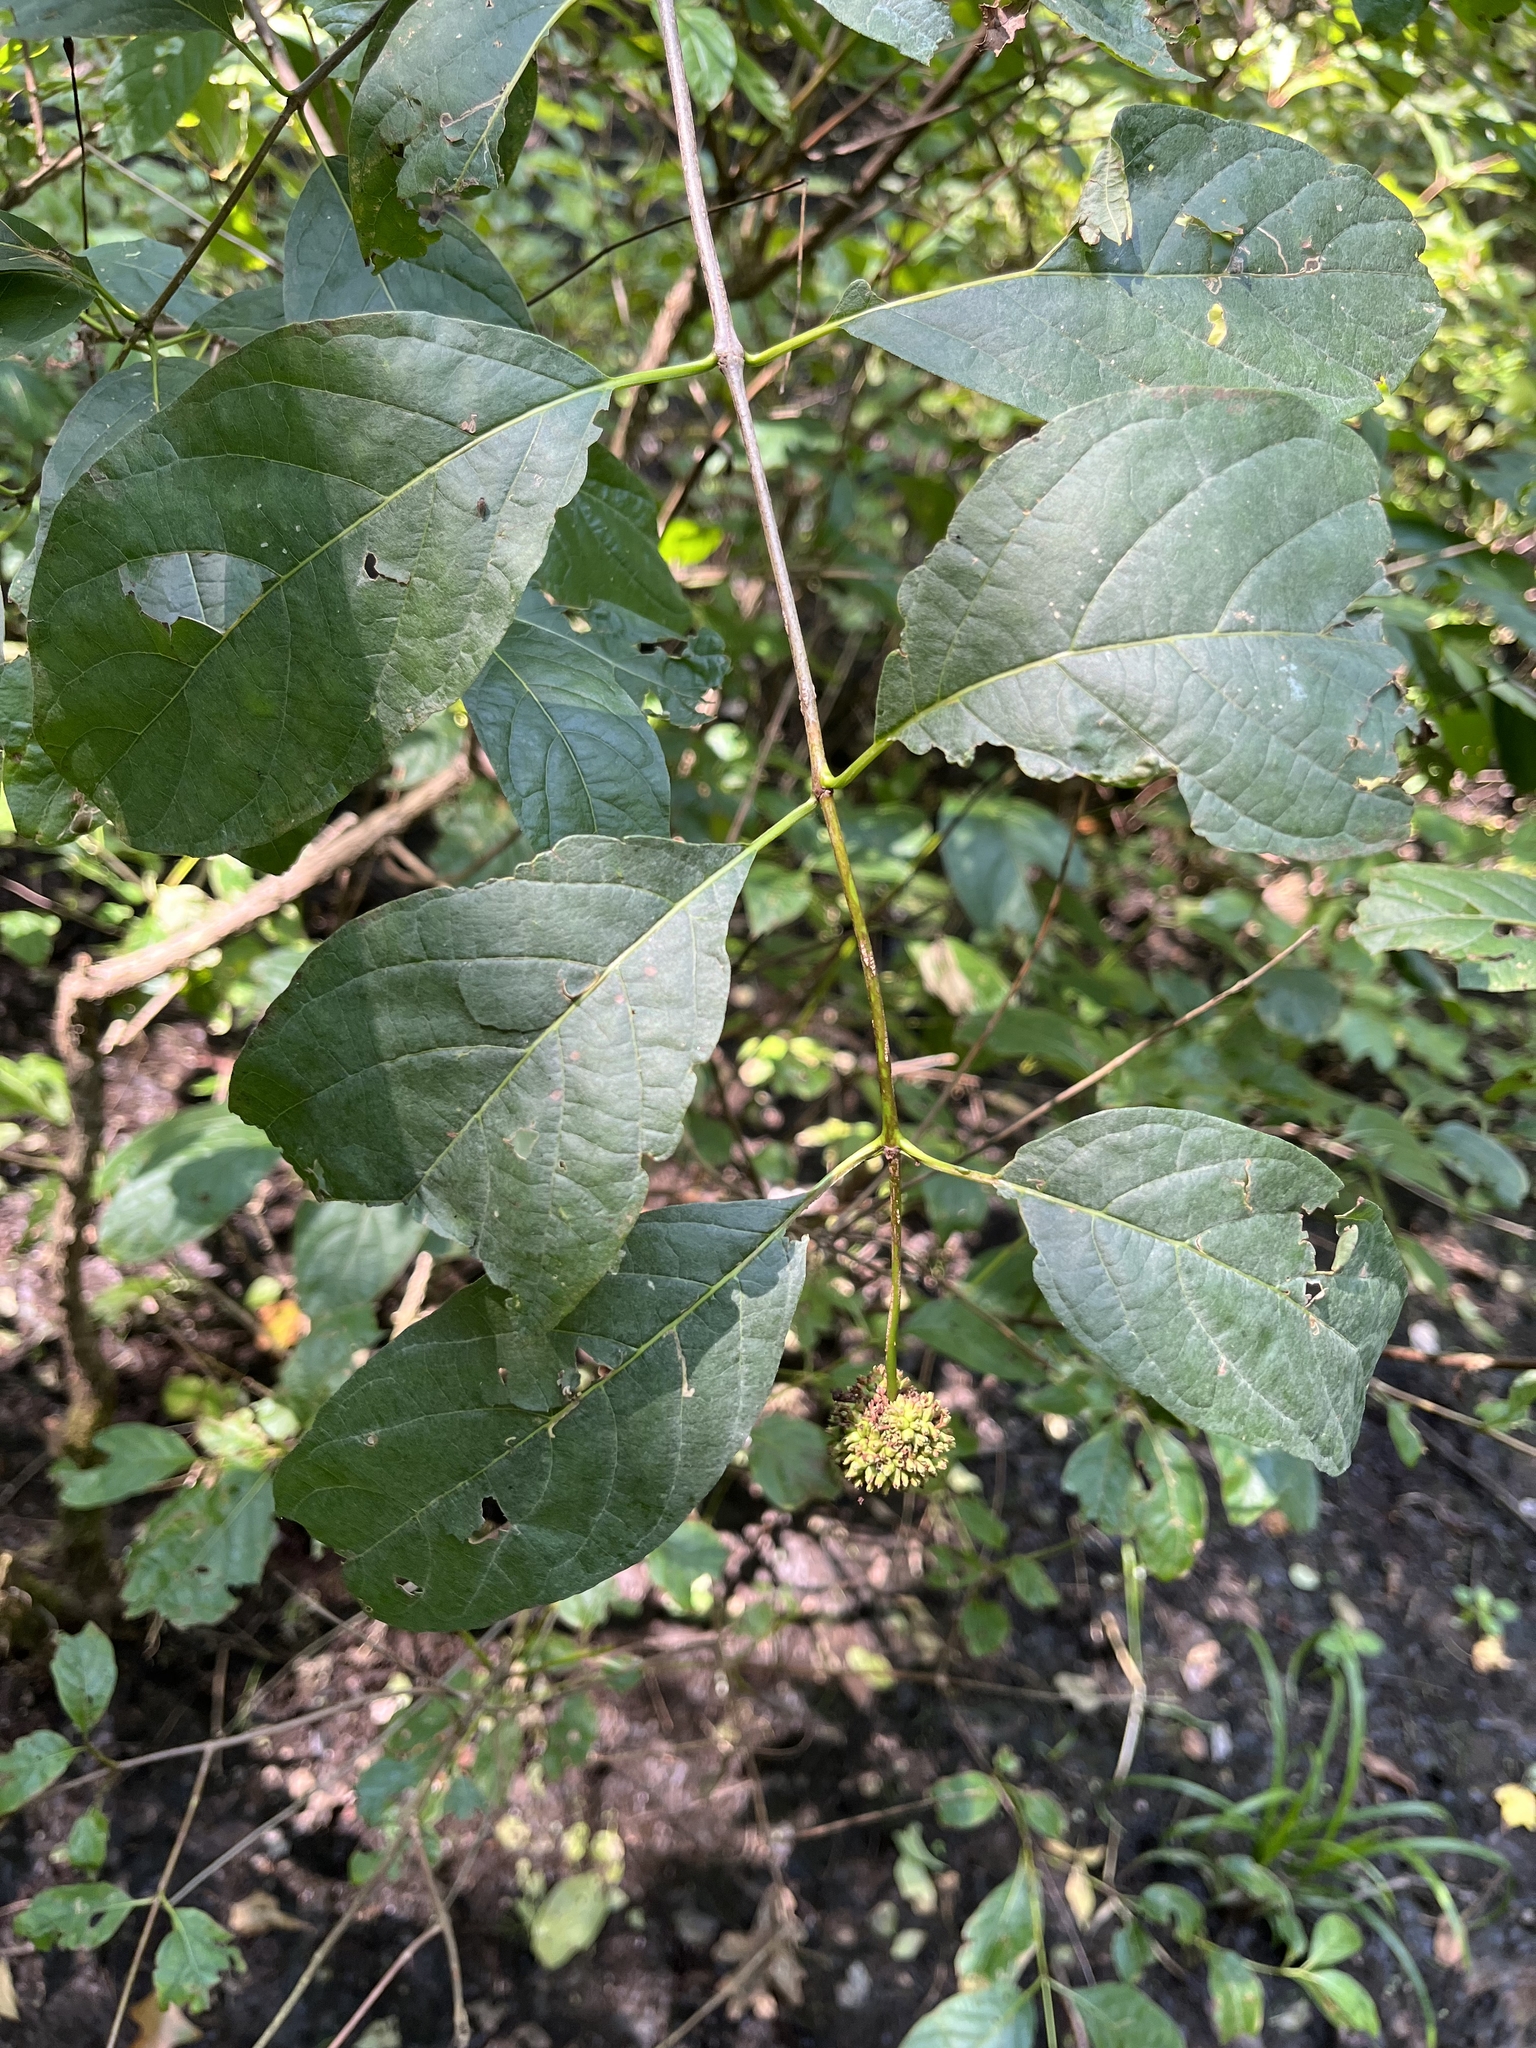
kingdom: Plantae
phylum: Tracheophyta
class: Magnoliopsida
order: Gentianales
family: Rubiaceae
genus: Cephalanthus
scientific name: Cephalanthus occidentalis
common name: Button-willow
